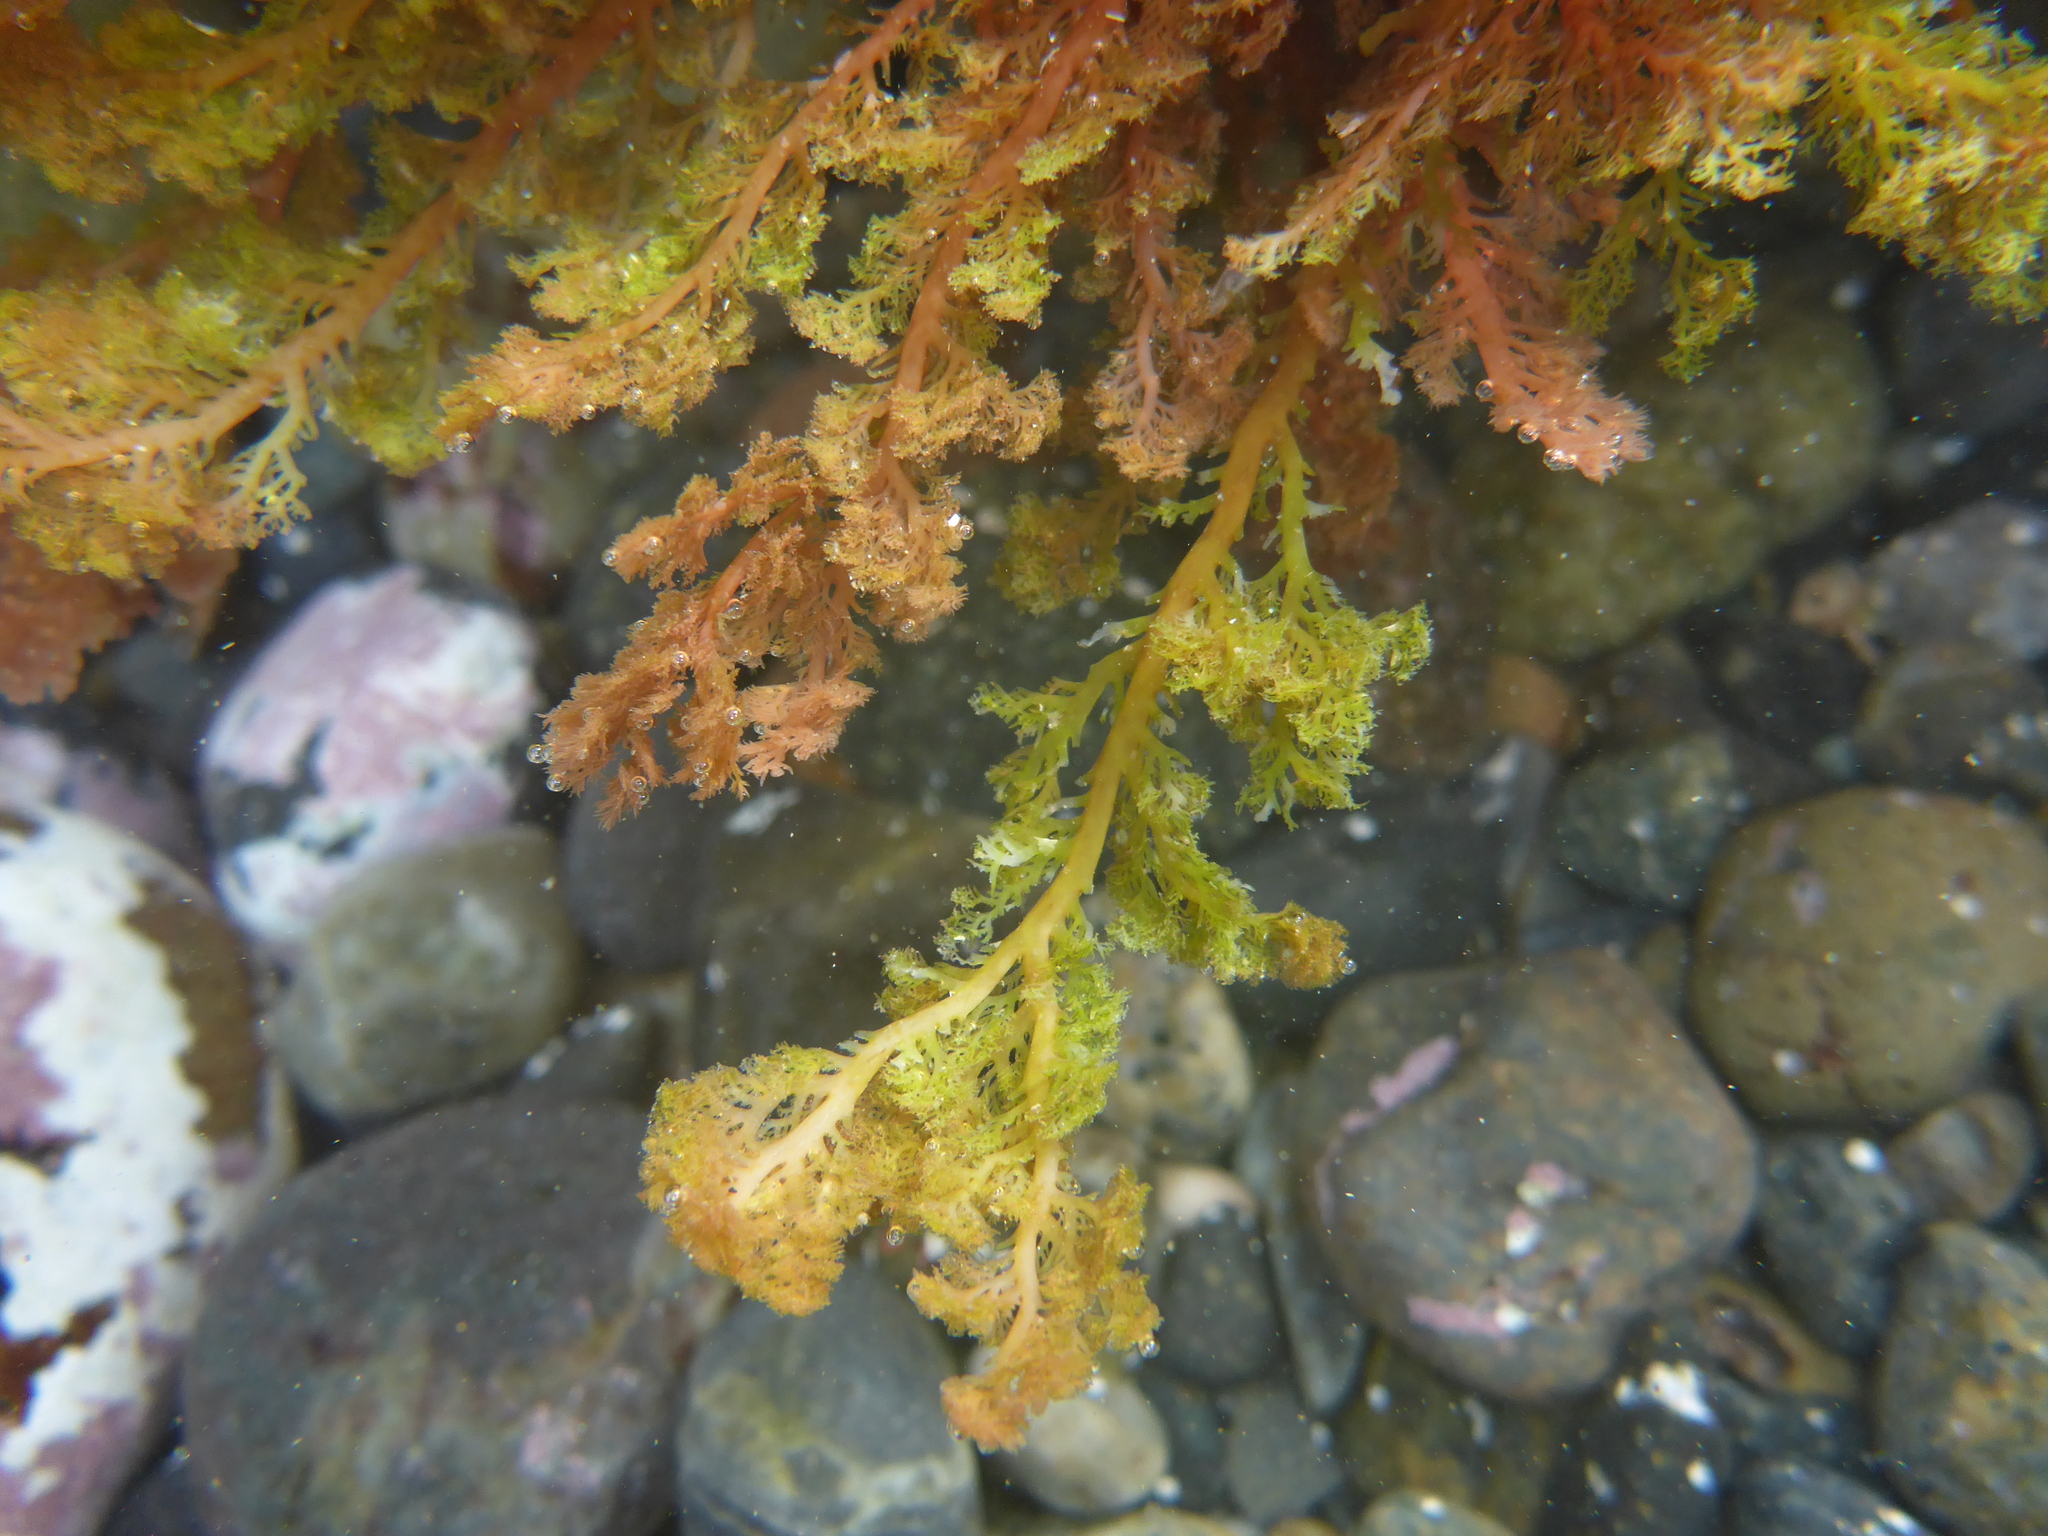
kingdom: Plantae
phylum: Rhodophyta
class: Florideophyceae
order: Plocamiales
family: Plocamiaceae
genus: Plocamium
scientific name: Plocamium cartilagineum
